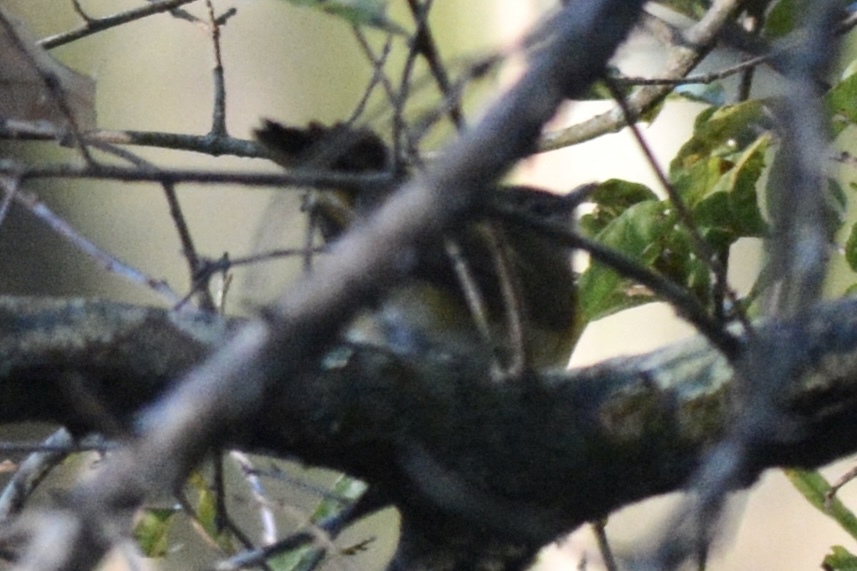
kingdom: Animalia
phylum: Chordata
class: Aves
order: Passeriformes
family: Parulidae
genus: Setophaga
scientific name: Setophaga ruticilla
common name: American redstart
